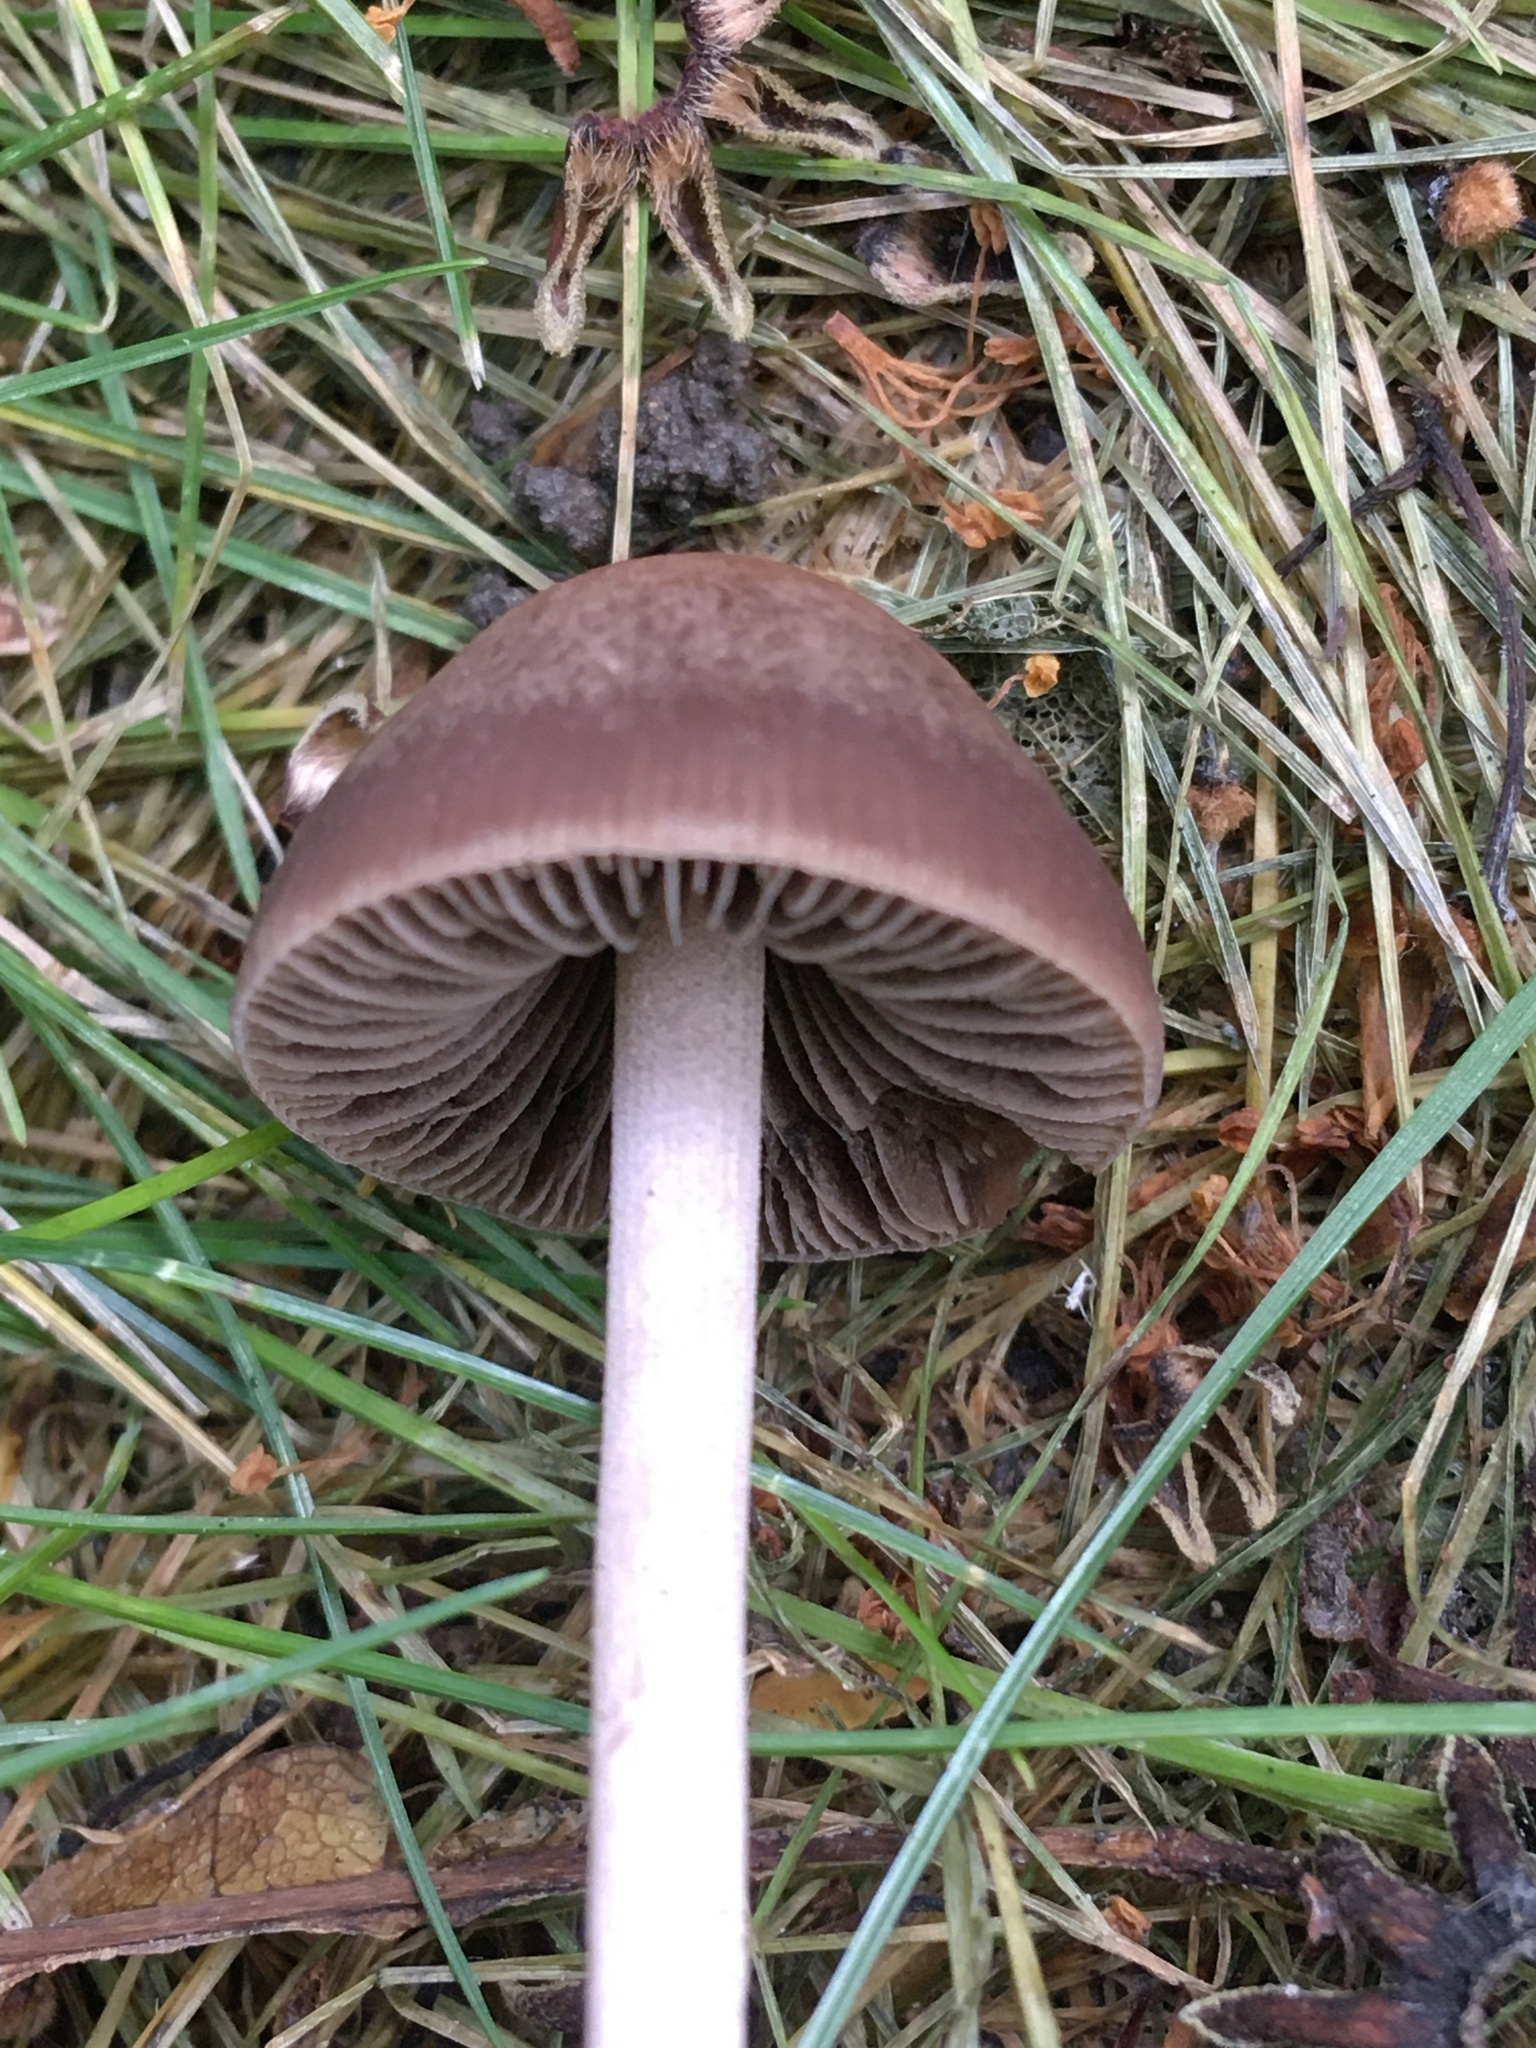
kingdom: Fungi
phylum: Basidiomycota
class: Agaricomycetes
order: Agaricales
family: Bolbitiaceae
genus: Panaeolina
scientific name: Panaeolina foenisecii
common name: Brown hay cap
